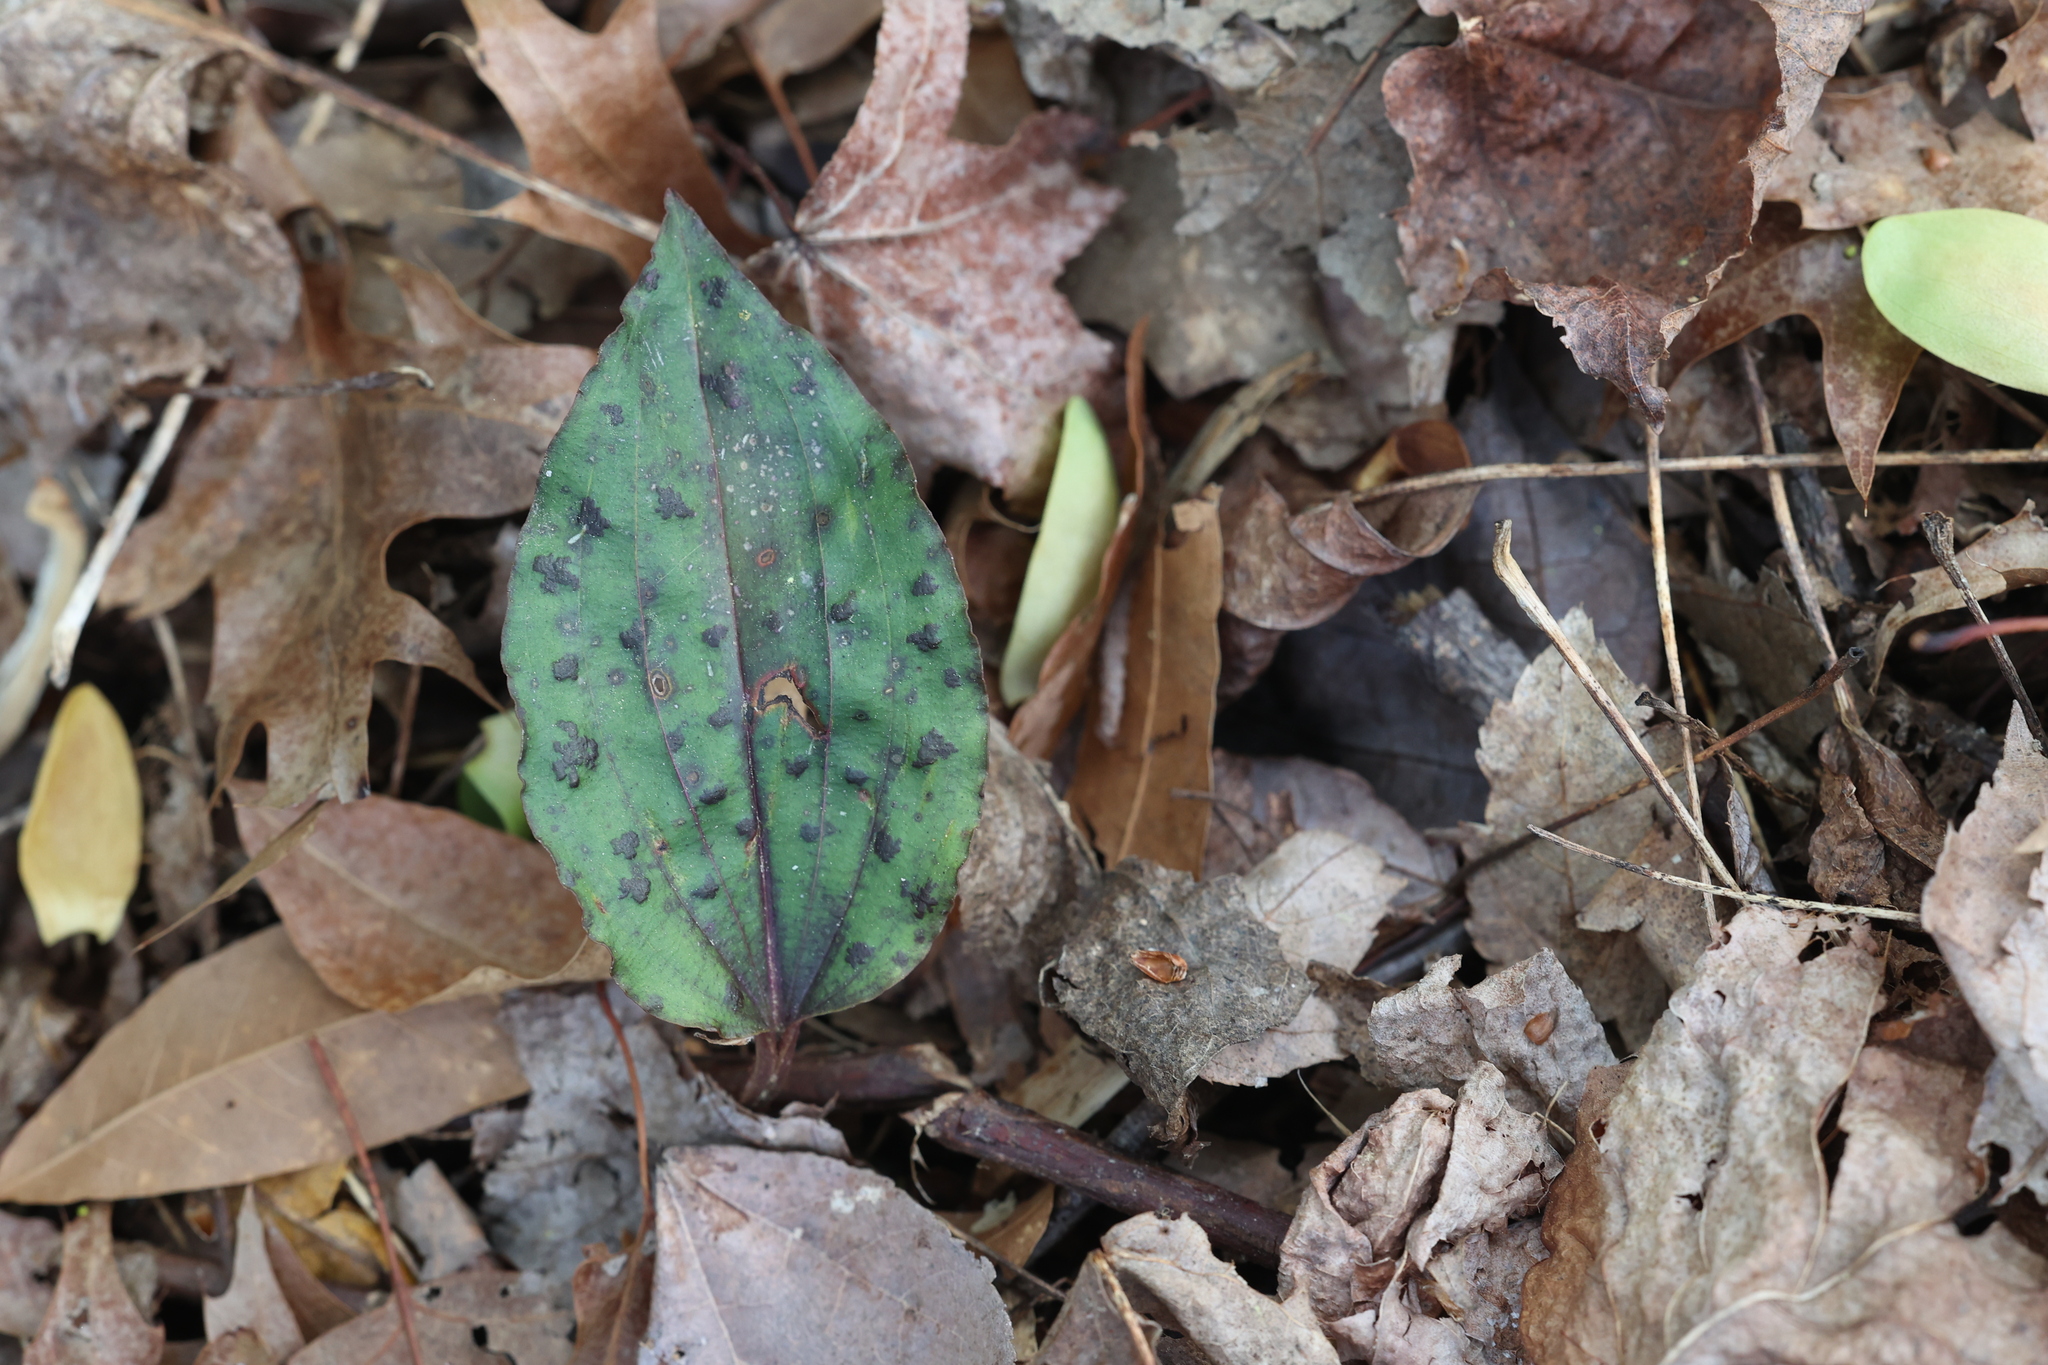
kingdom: Plantae
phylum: Tracheophyta
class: Liliopsida
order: Asparagales
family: Orchidaceae
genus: Tipularia
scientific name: Tipularia discolor
